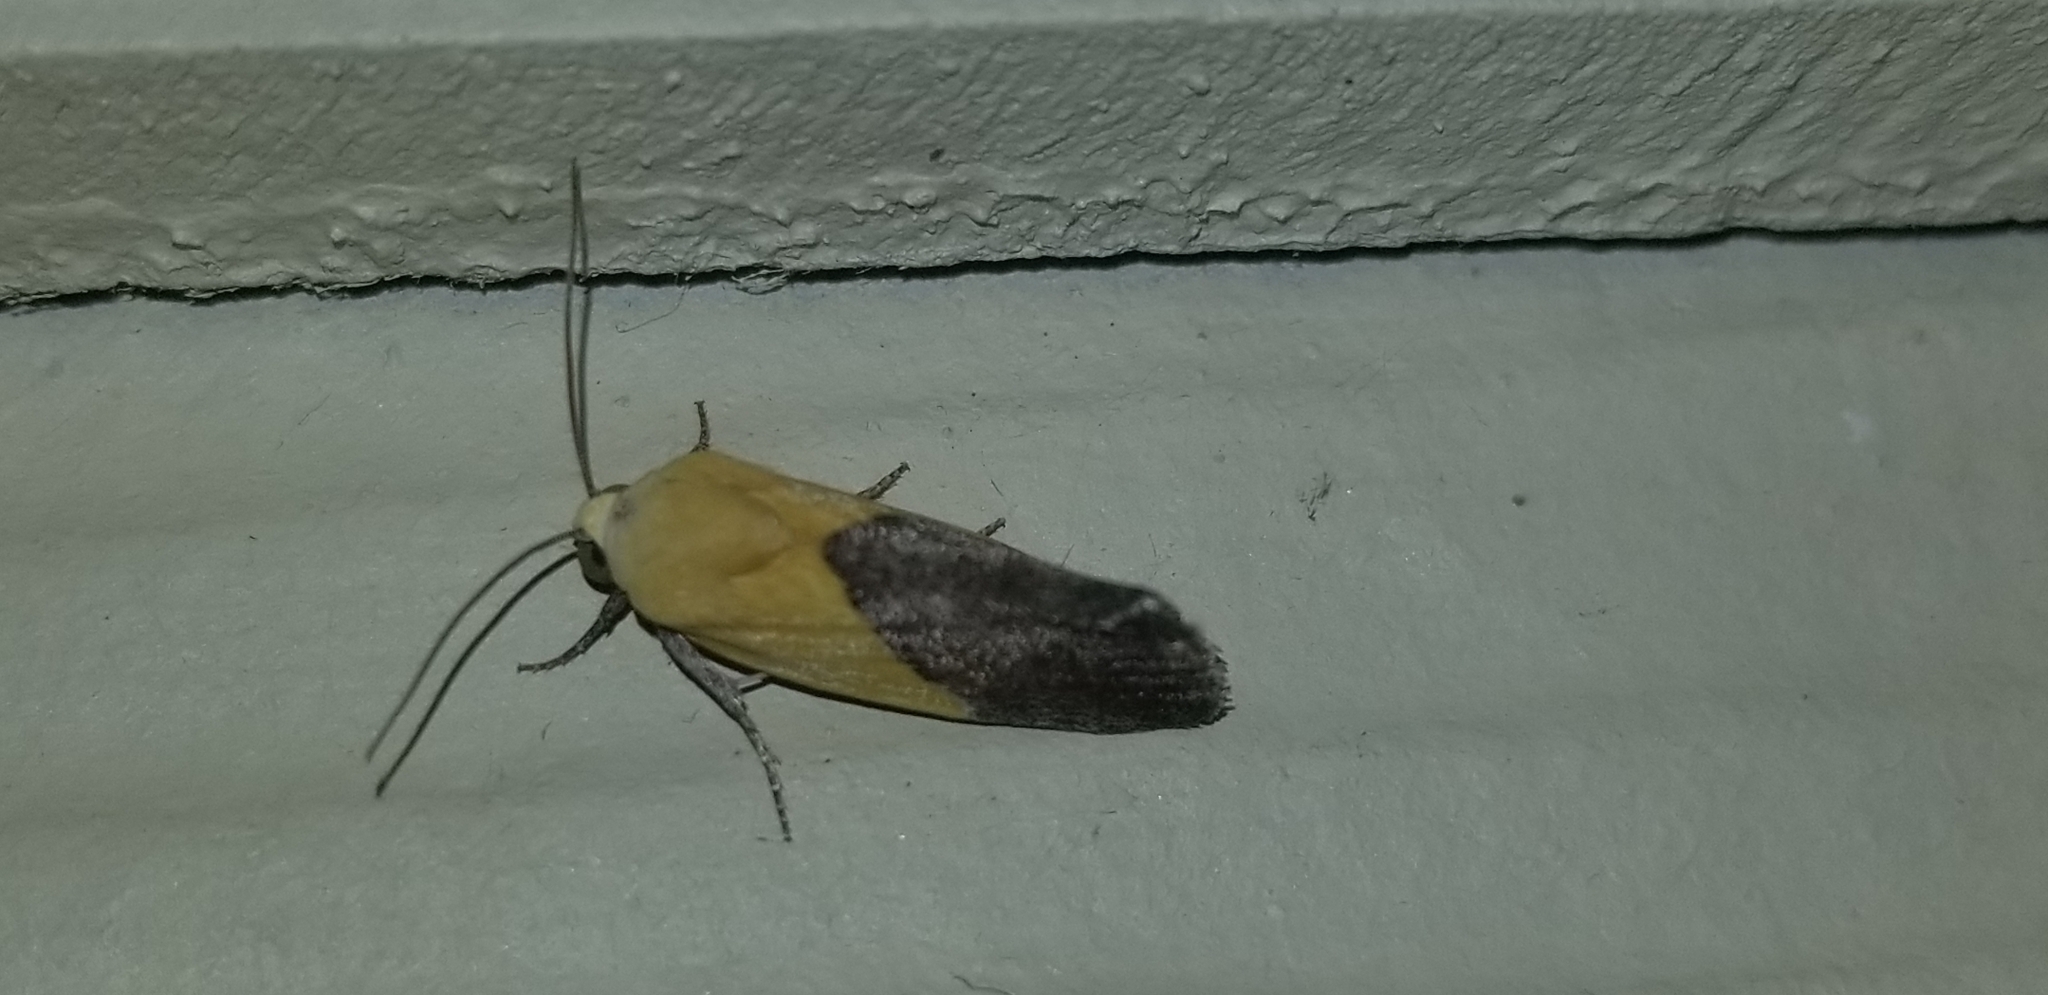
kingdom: Animalia
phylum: Arthropoda
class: Insecta
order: Lepidoptera
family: Noctuidae
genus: Acontia
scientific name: Acontia semiflava
